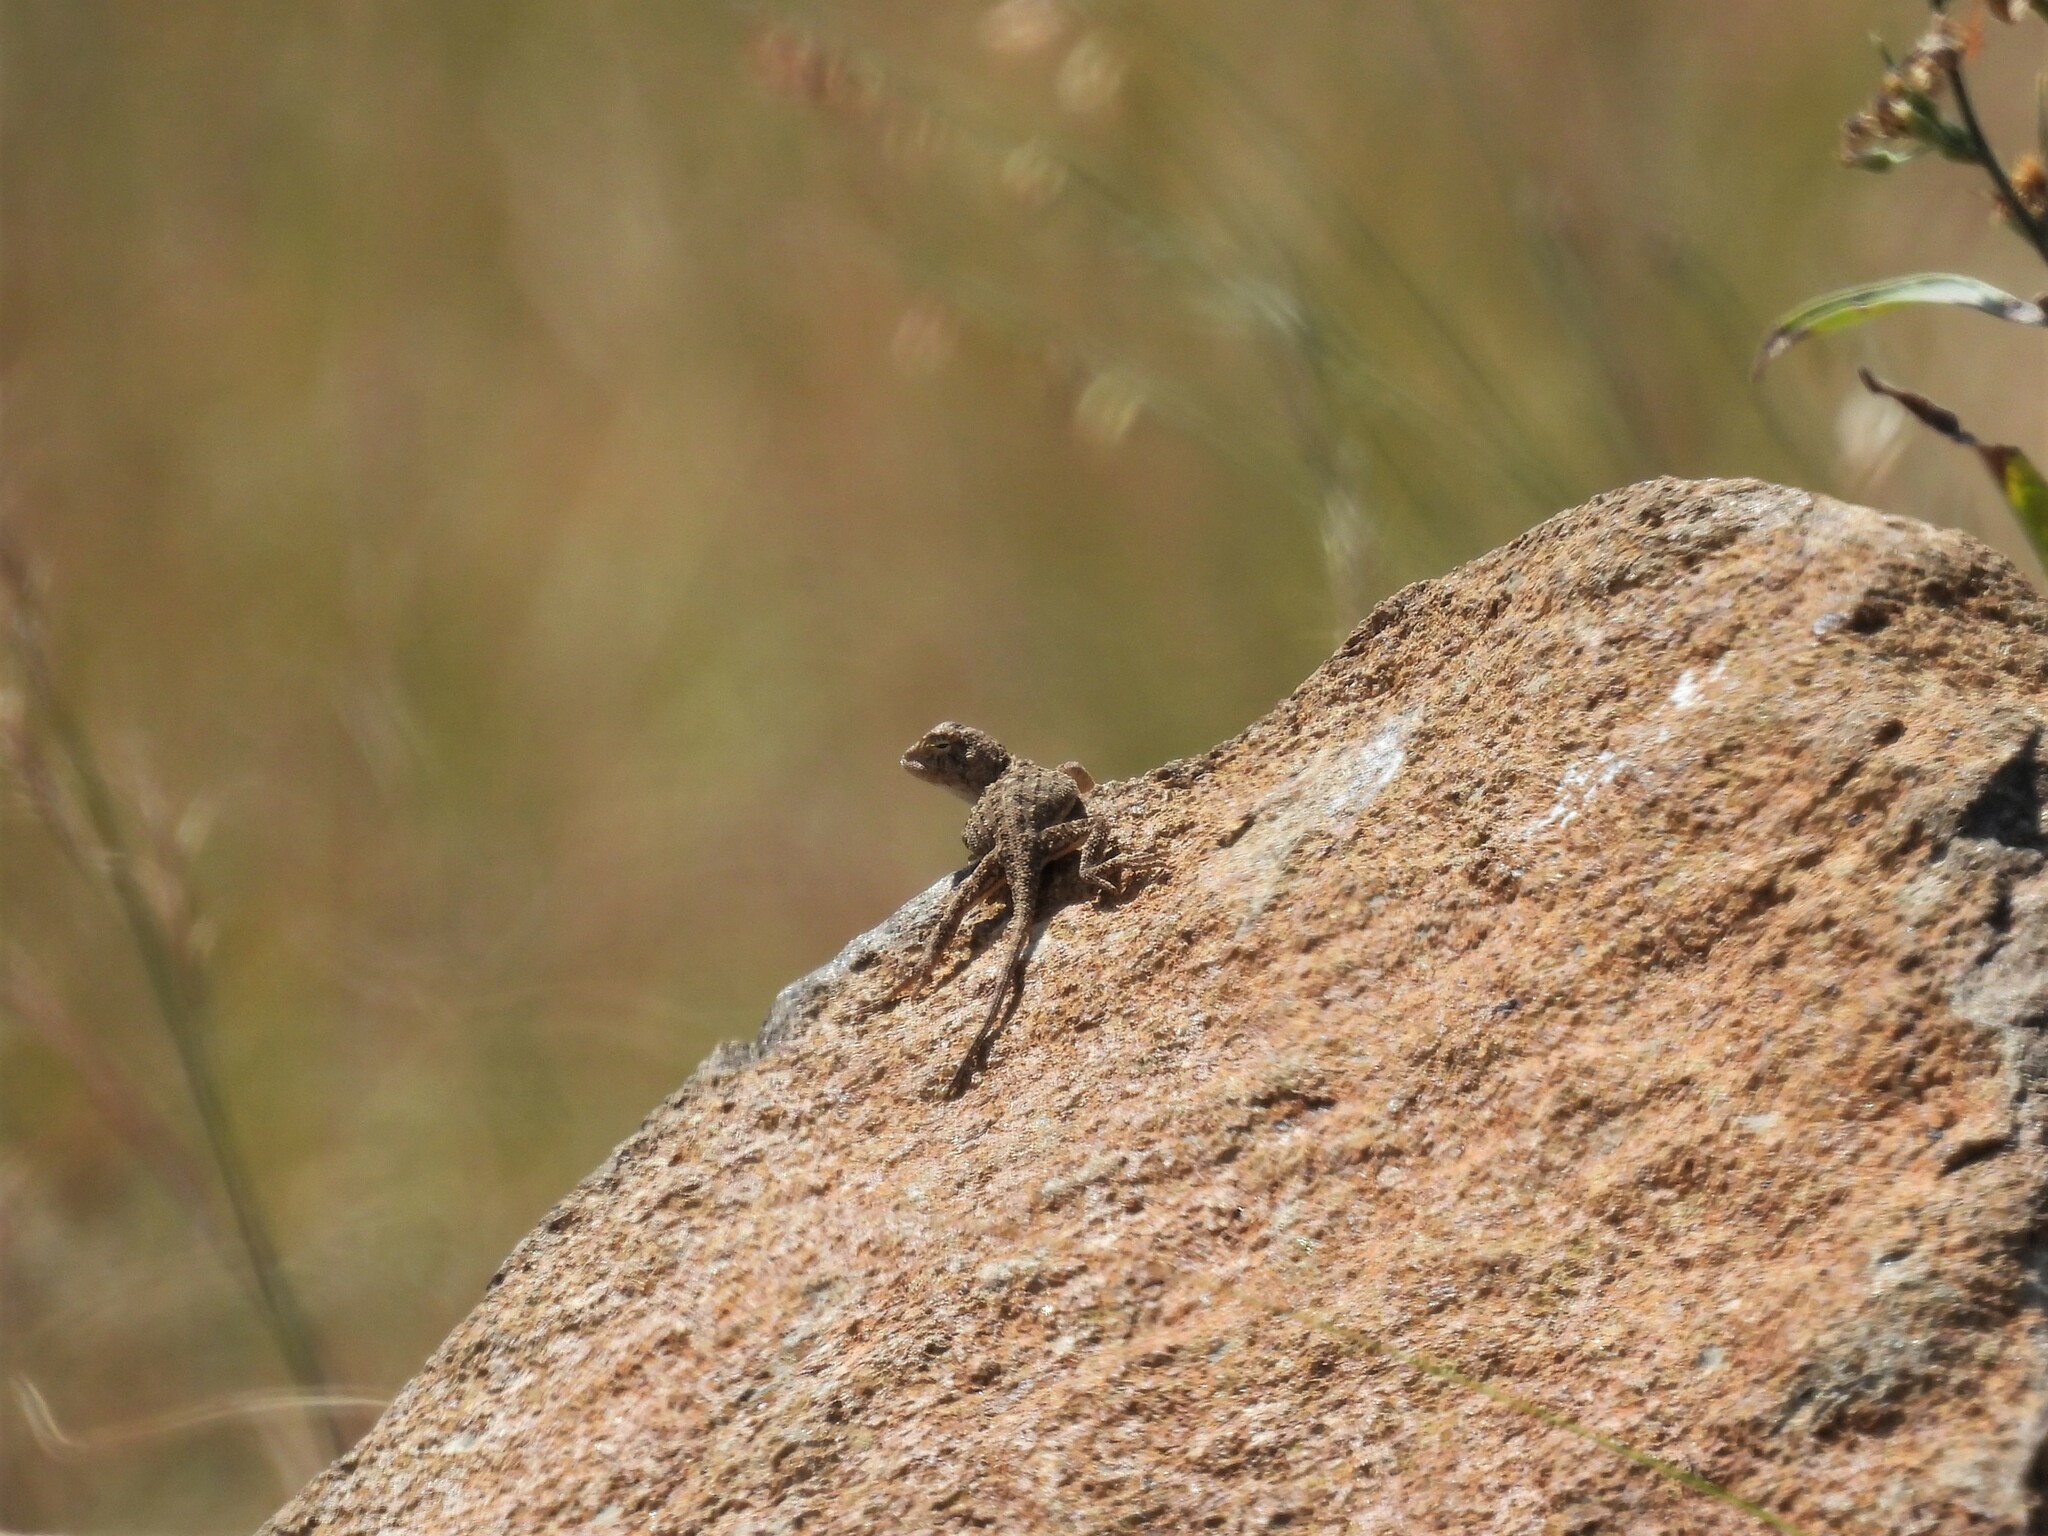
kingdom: Animalia
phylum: Chordata
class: Squamata
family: Agamidae
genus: Agama
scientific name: Agama aculeata
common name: Common ground agama
